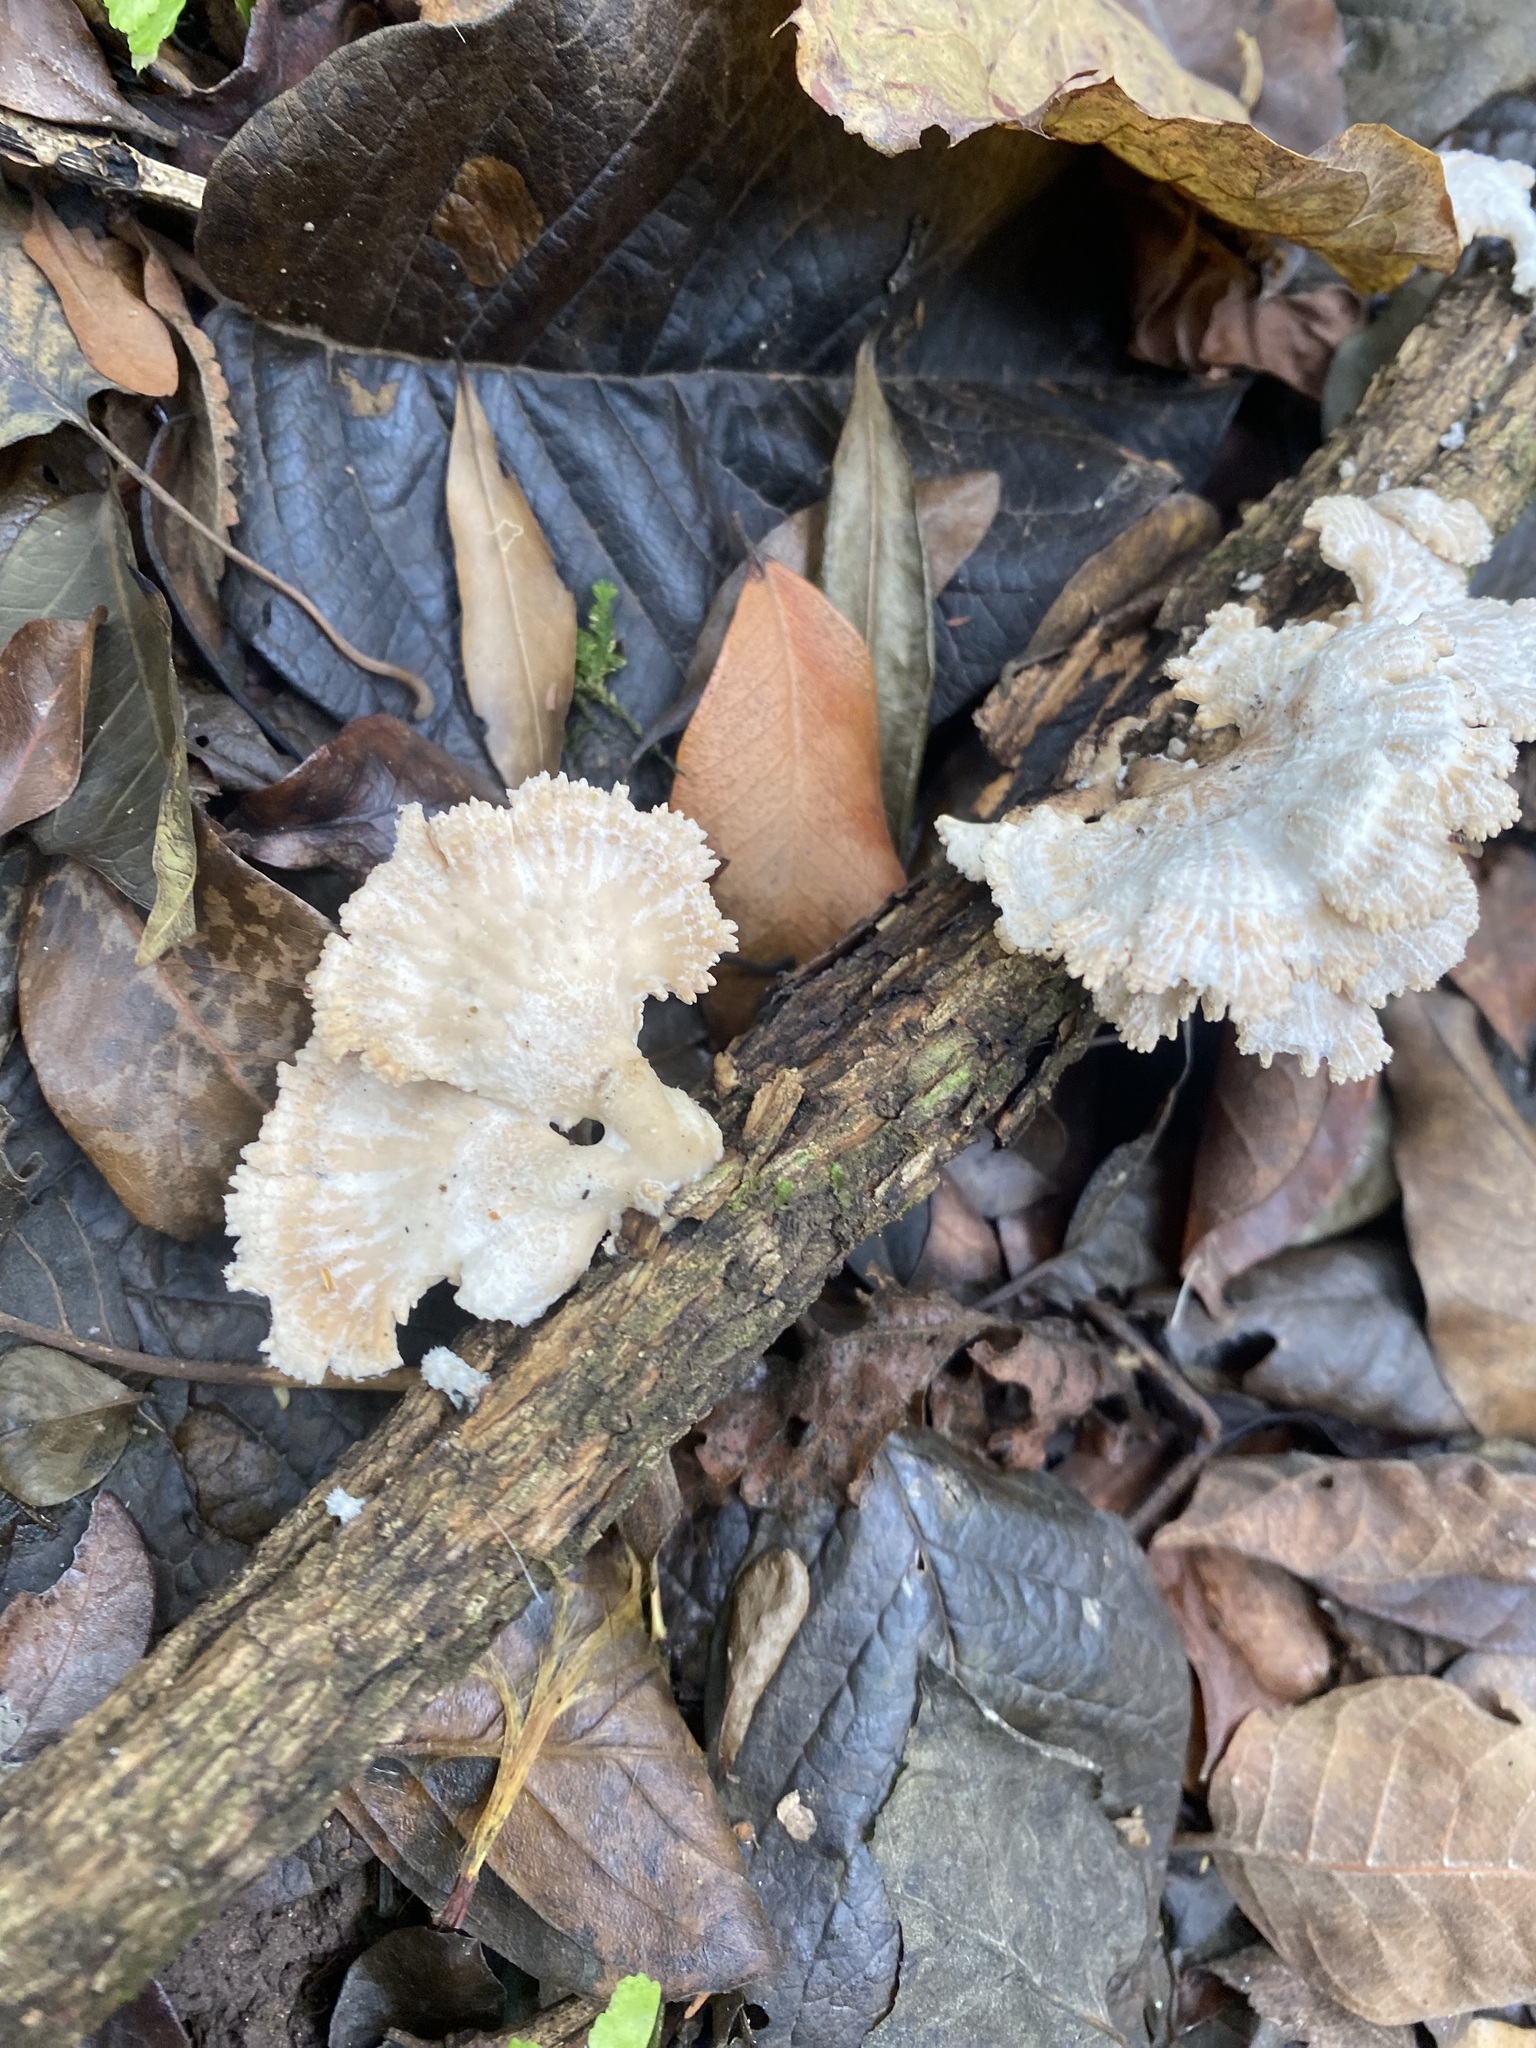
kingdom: Fungi
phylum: Basidiomycota
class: Agaricomycetes
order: Agaricales
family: Schizophyllaceae
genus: Schizophyllum
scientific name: Schizophyllum commune
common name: Common porecrust
